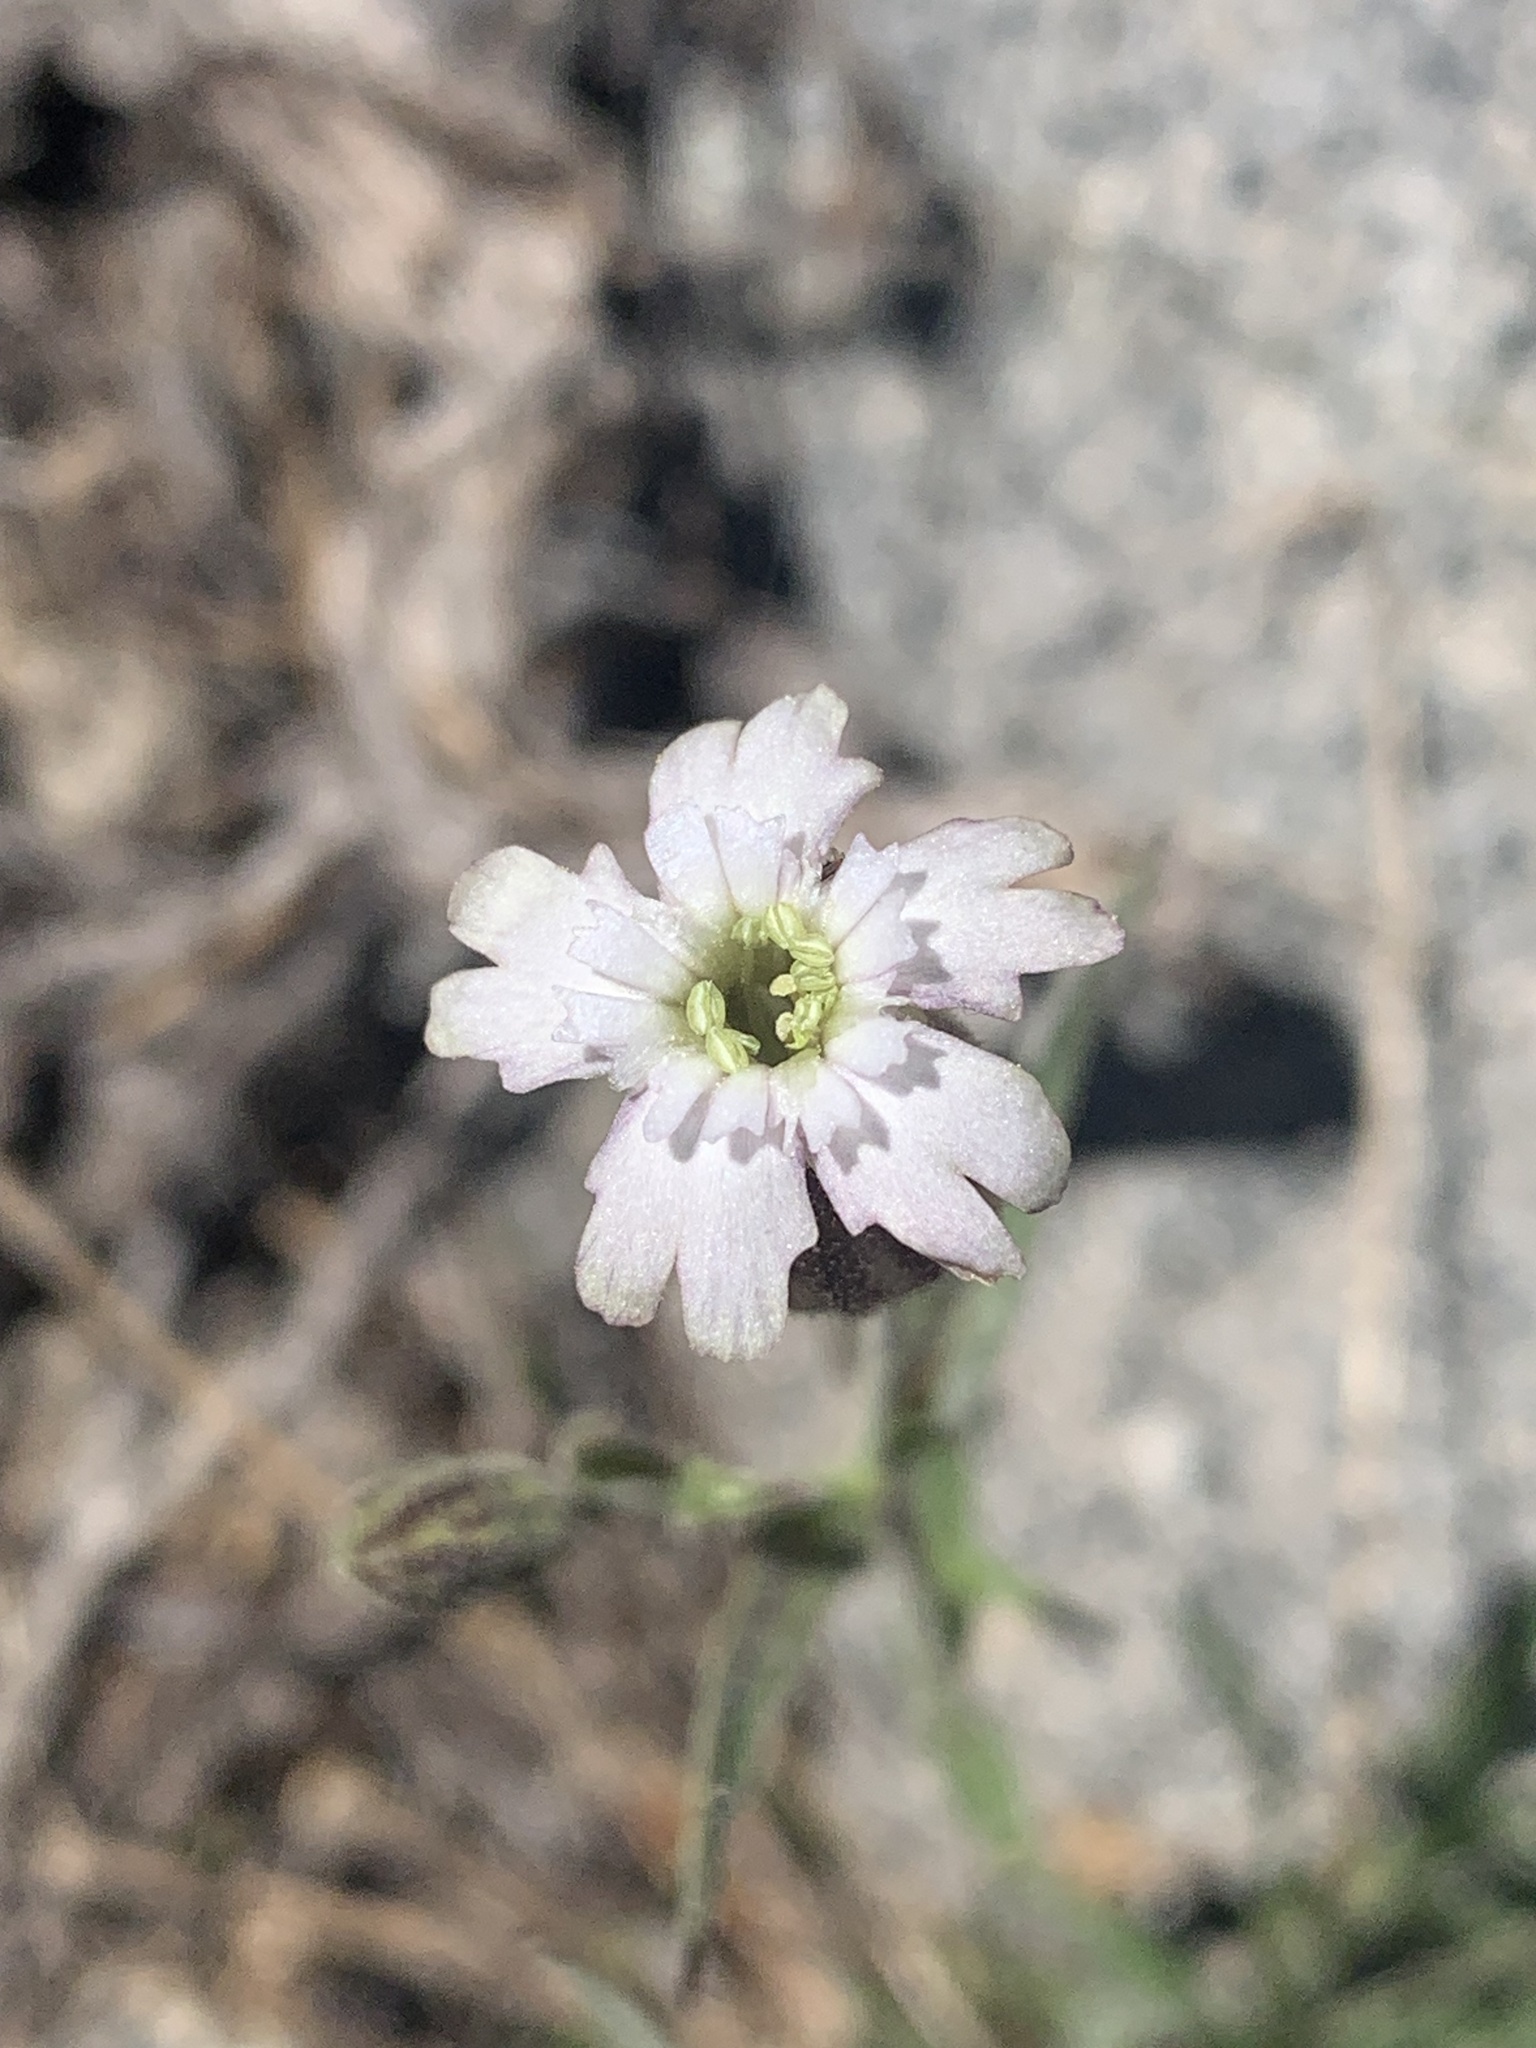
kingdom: Plantae
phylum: Tracheophyta
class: Magnoliopsida
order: Caryophyllales
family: Caryophyllaceae
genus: Silene
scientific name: Silene sargentii
